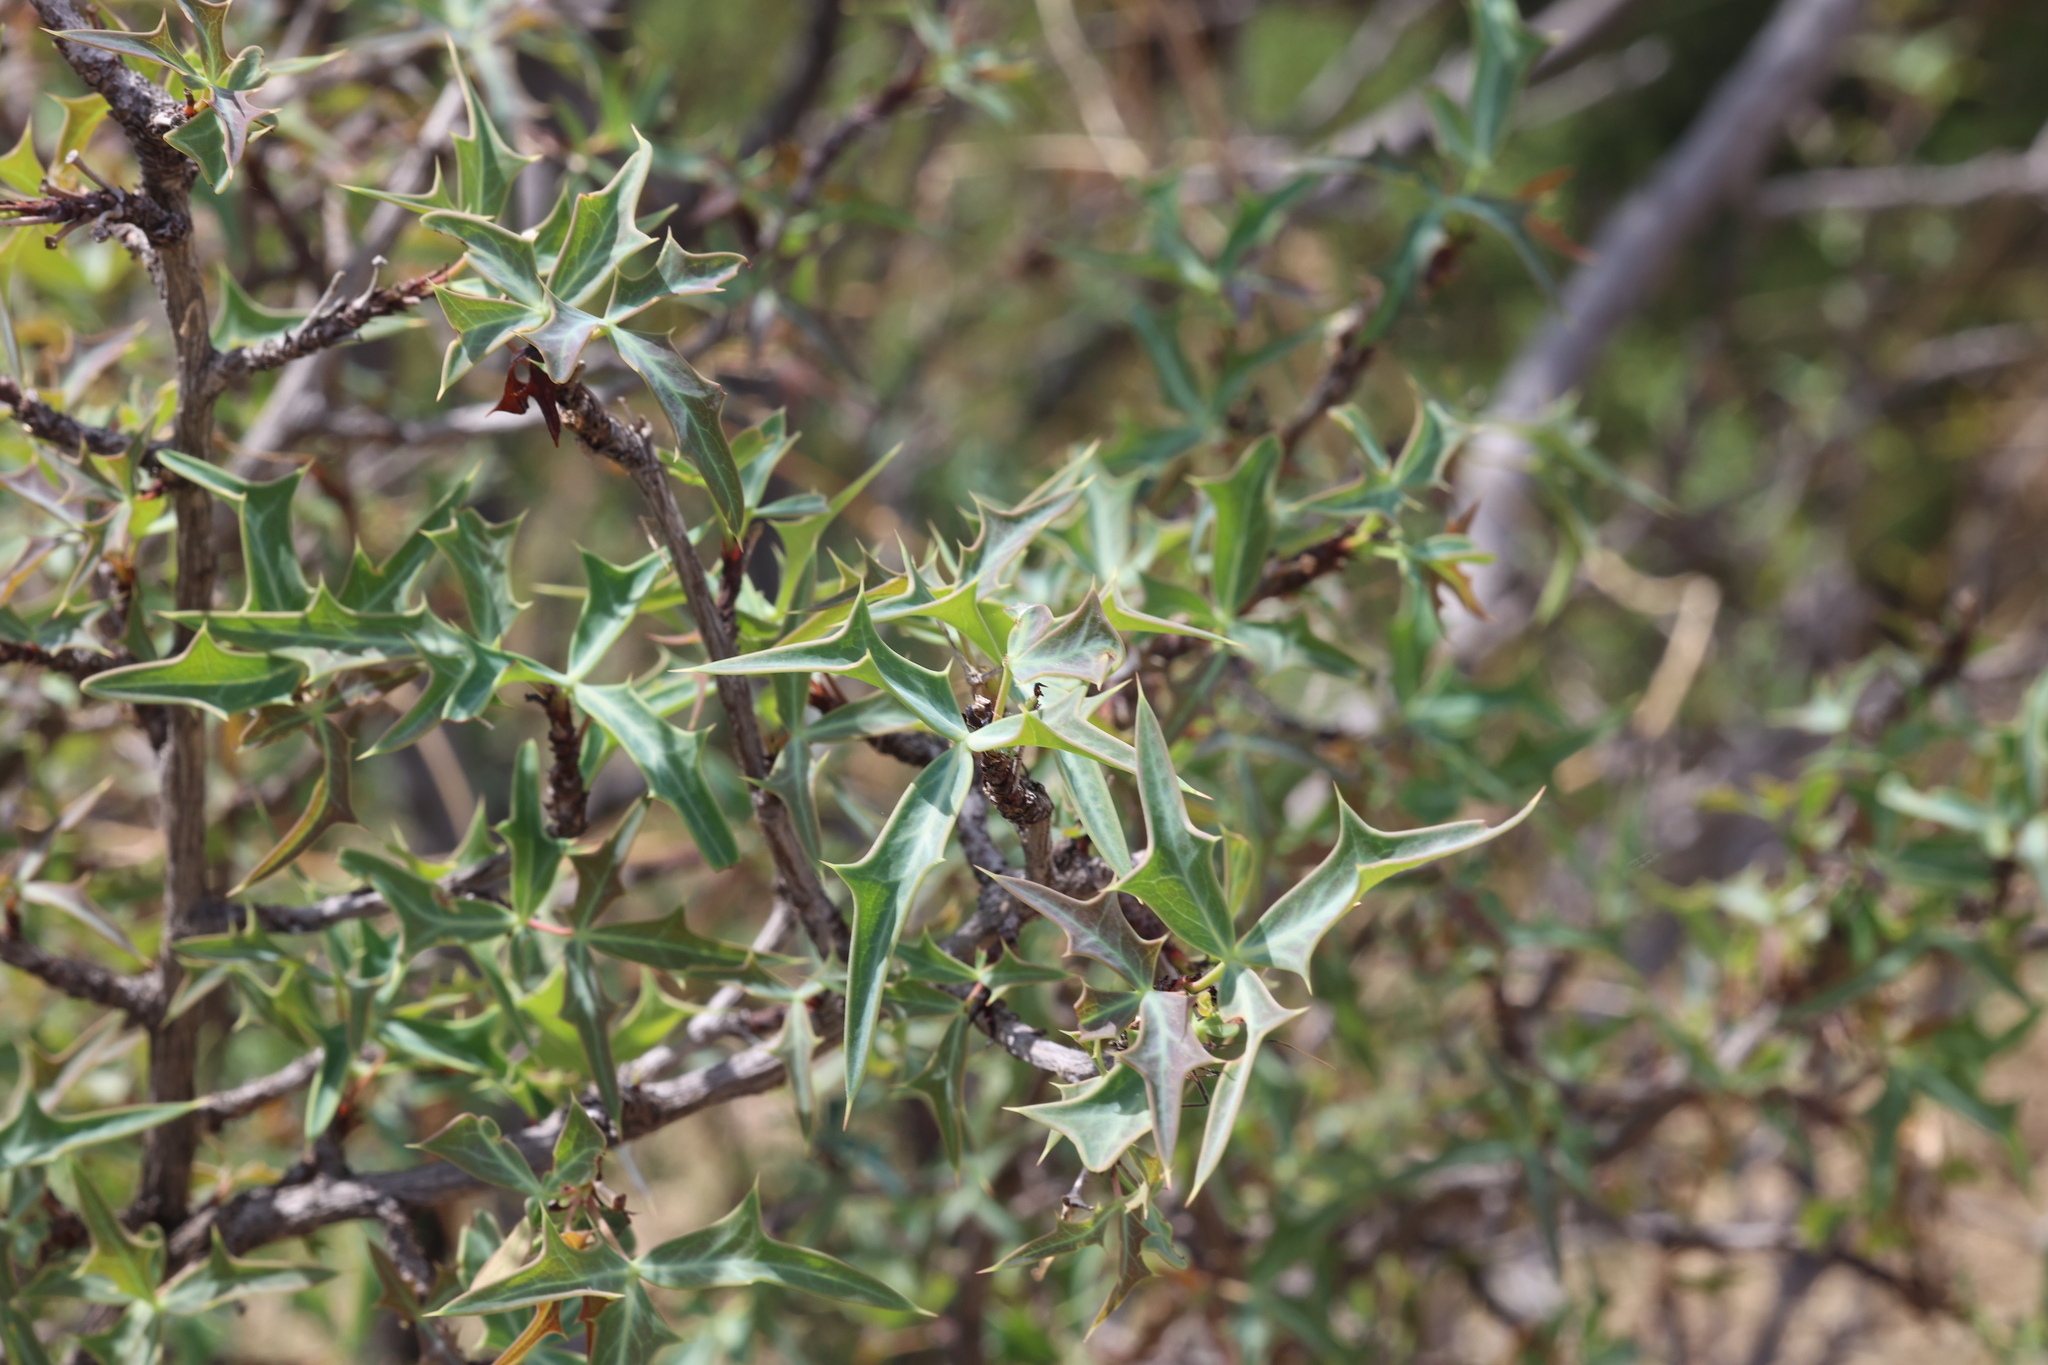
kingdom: Plantae
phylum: Tracheophyta
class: Magnoliopsida
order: Ranunculales
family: Berberidaceae
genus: Alloberberis
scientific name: Alloberberis trifoliolata
